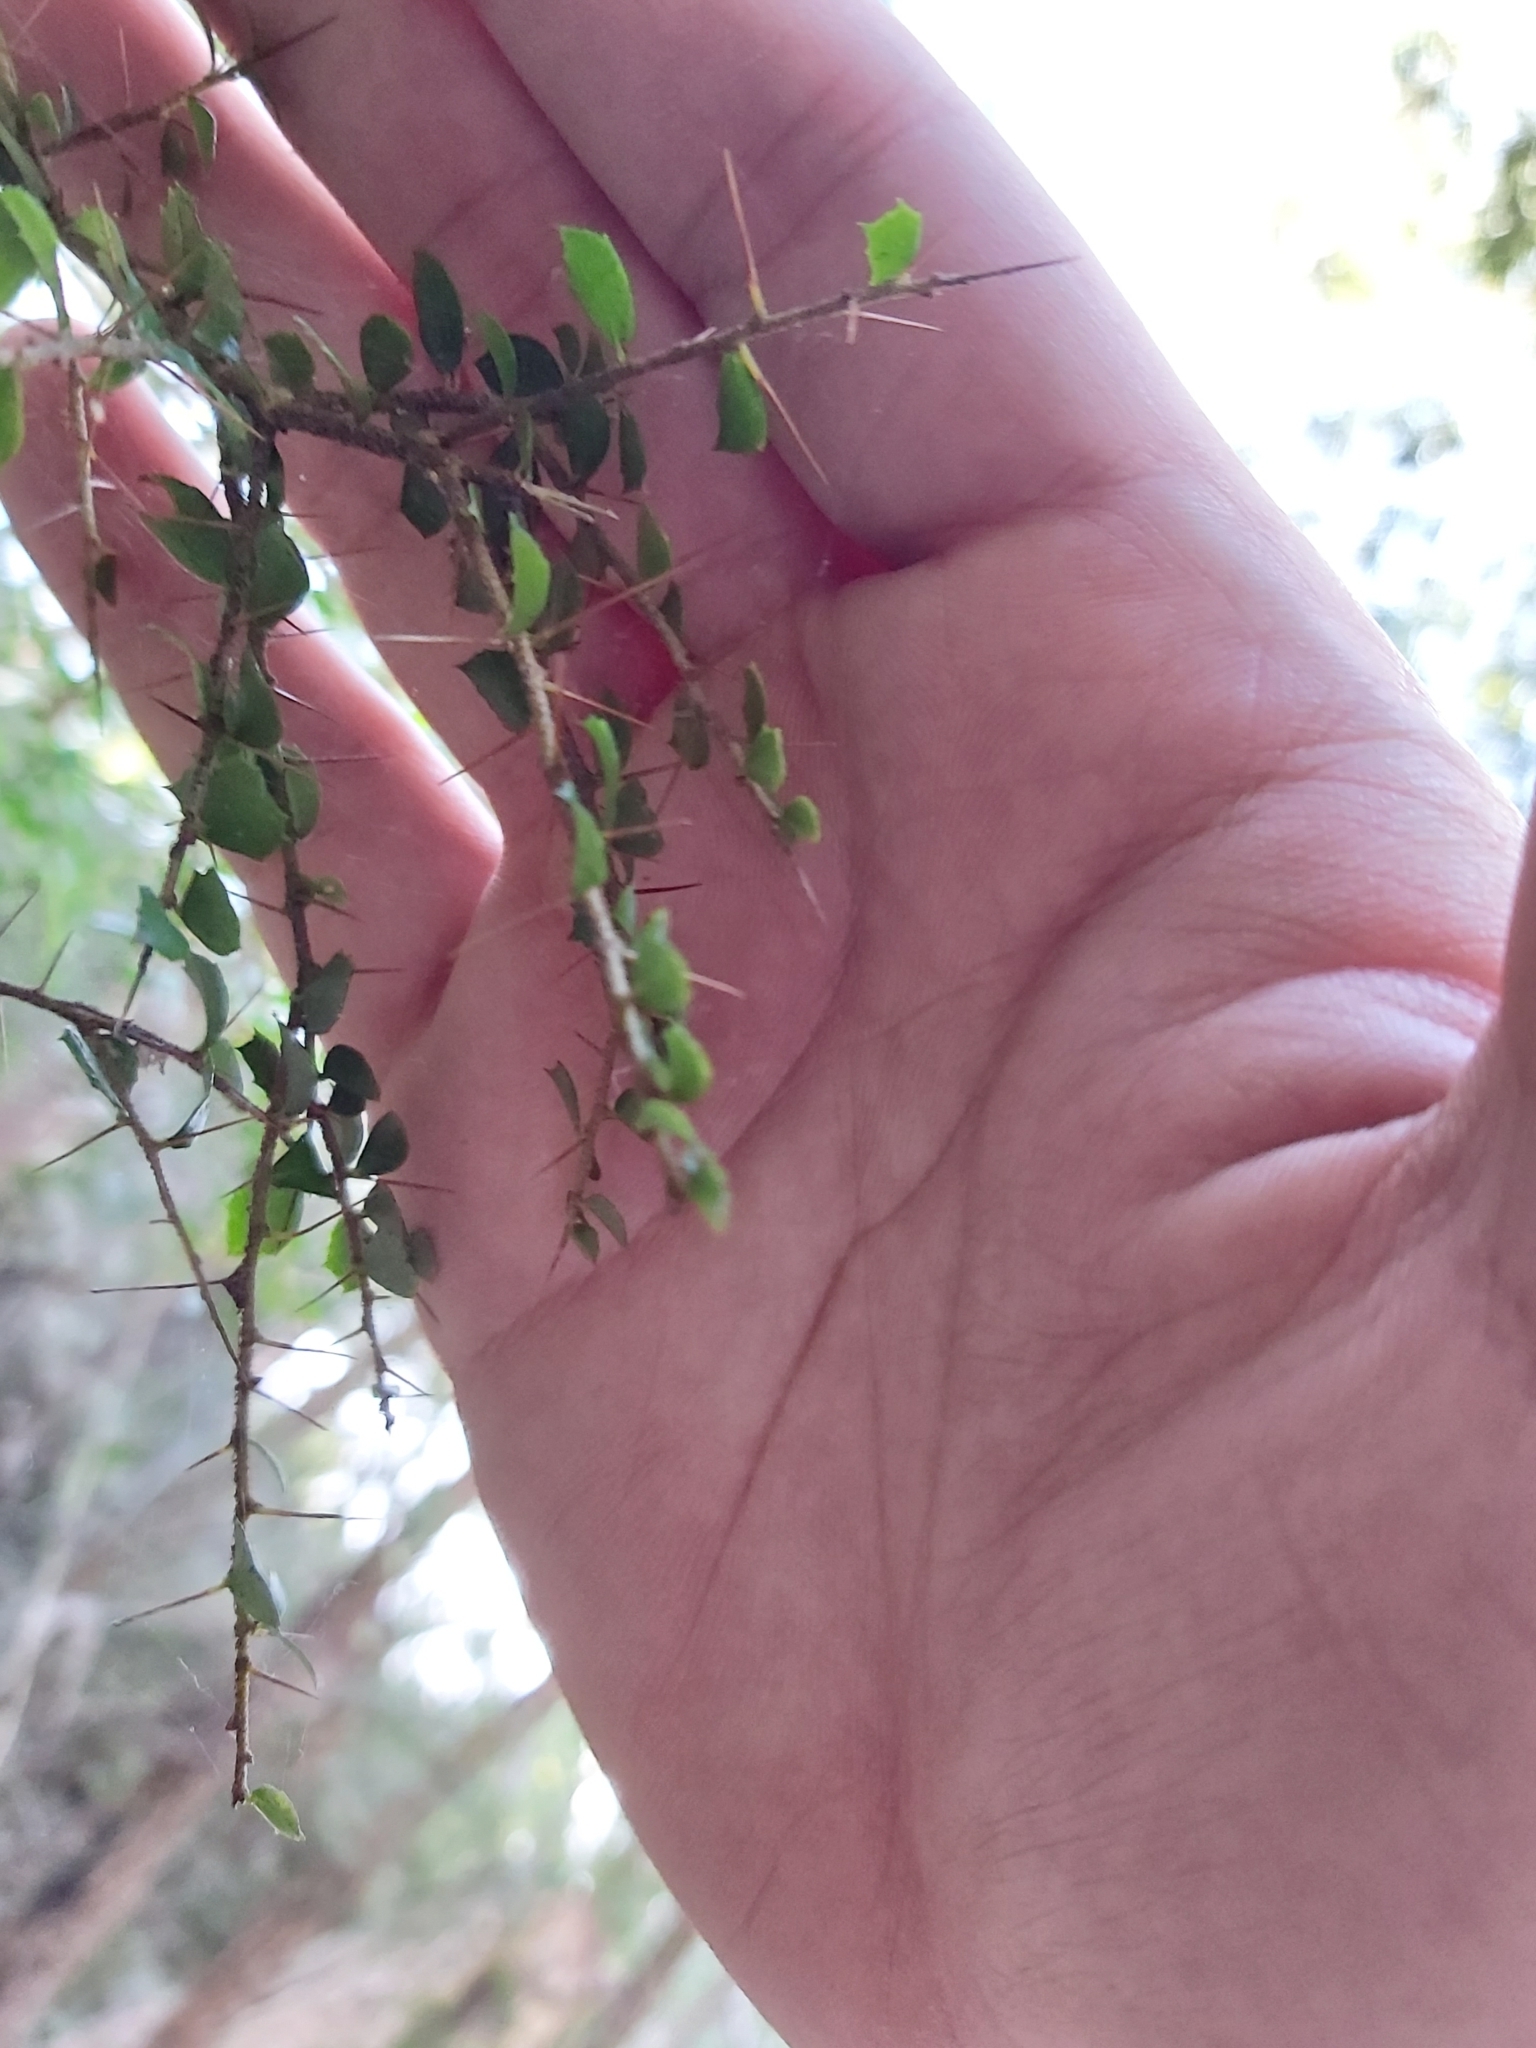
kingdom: Plantae
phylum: Tracheophyta
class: Magnoliopsida
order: Apiales
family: Pittosporaceae
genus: Pittosporum
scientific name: Pittosporum multiflorum
